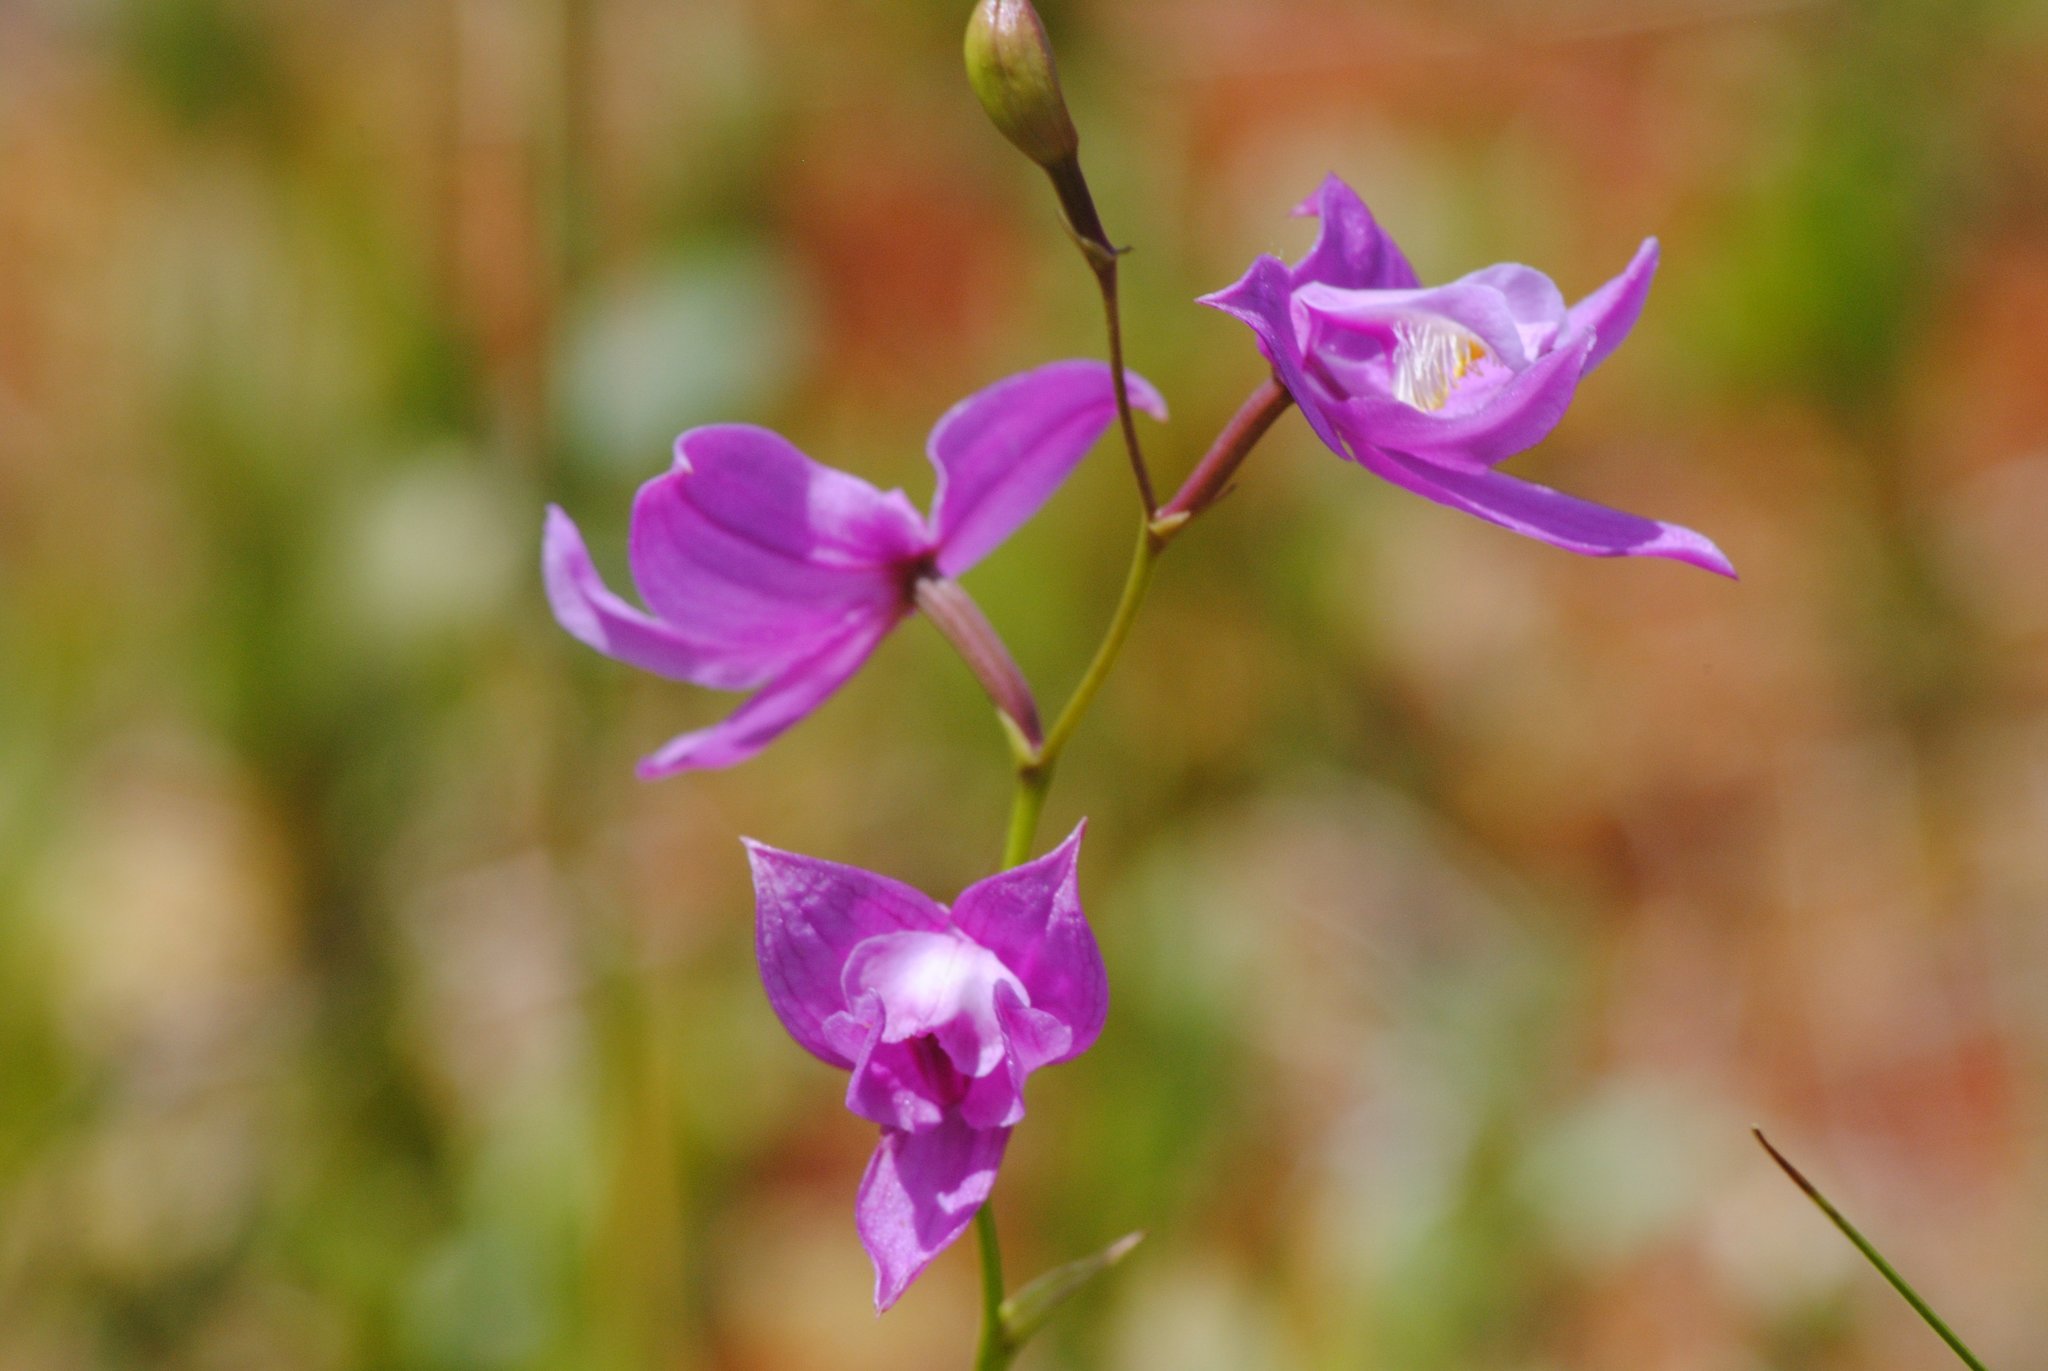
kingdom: Plantae
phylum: Tracheophyta
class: Liliopsida
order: Asparagales
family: Orchidaceae
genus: Calopogon
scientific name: Calopogon tuberosus
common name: Grass-pink
